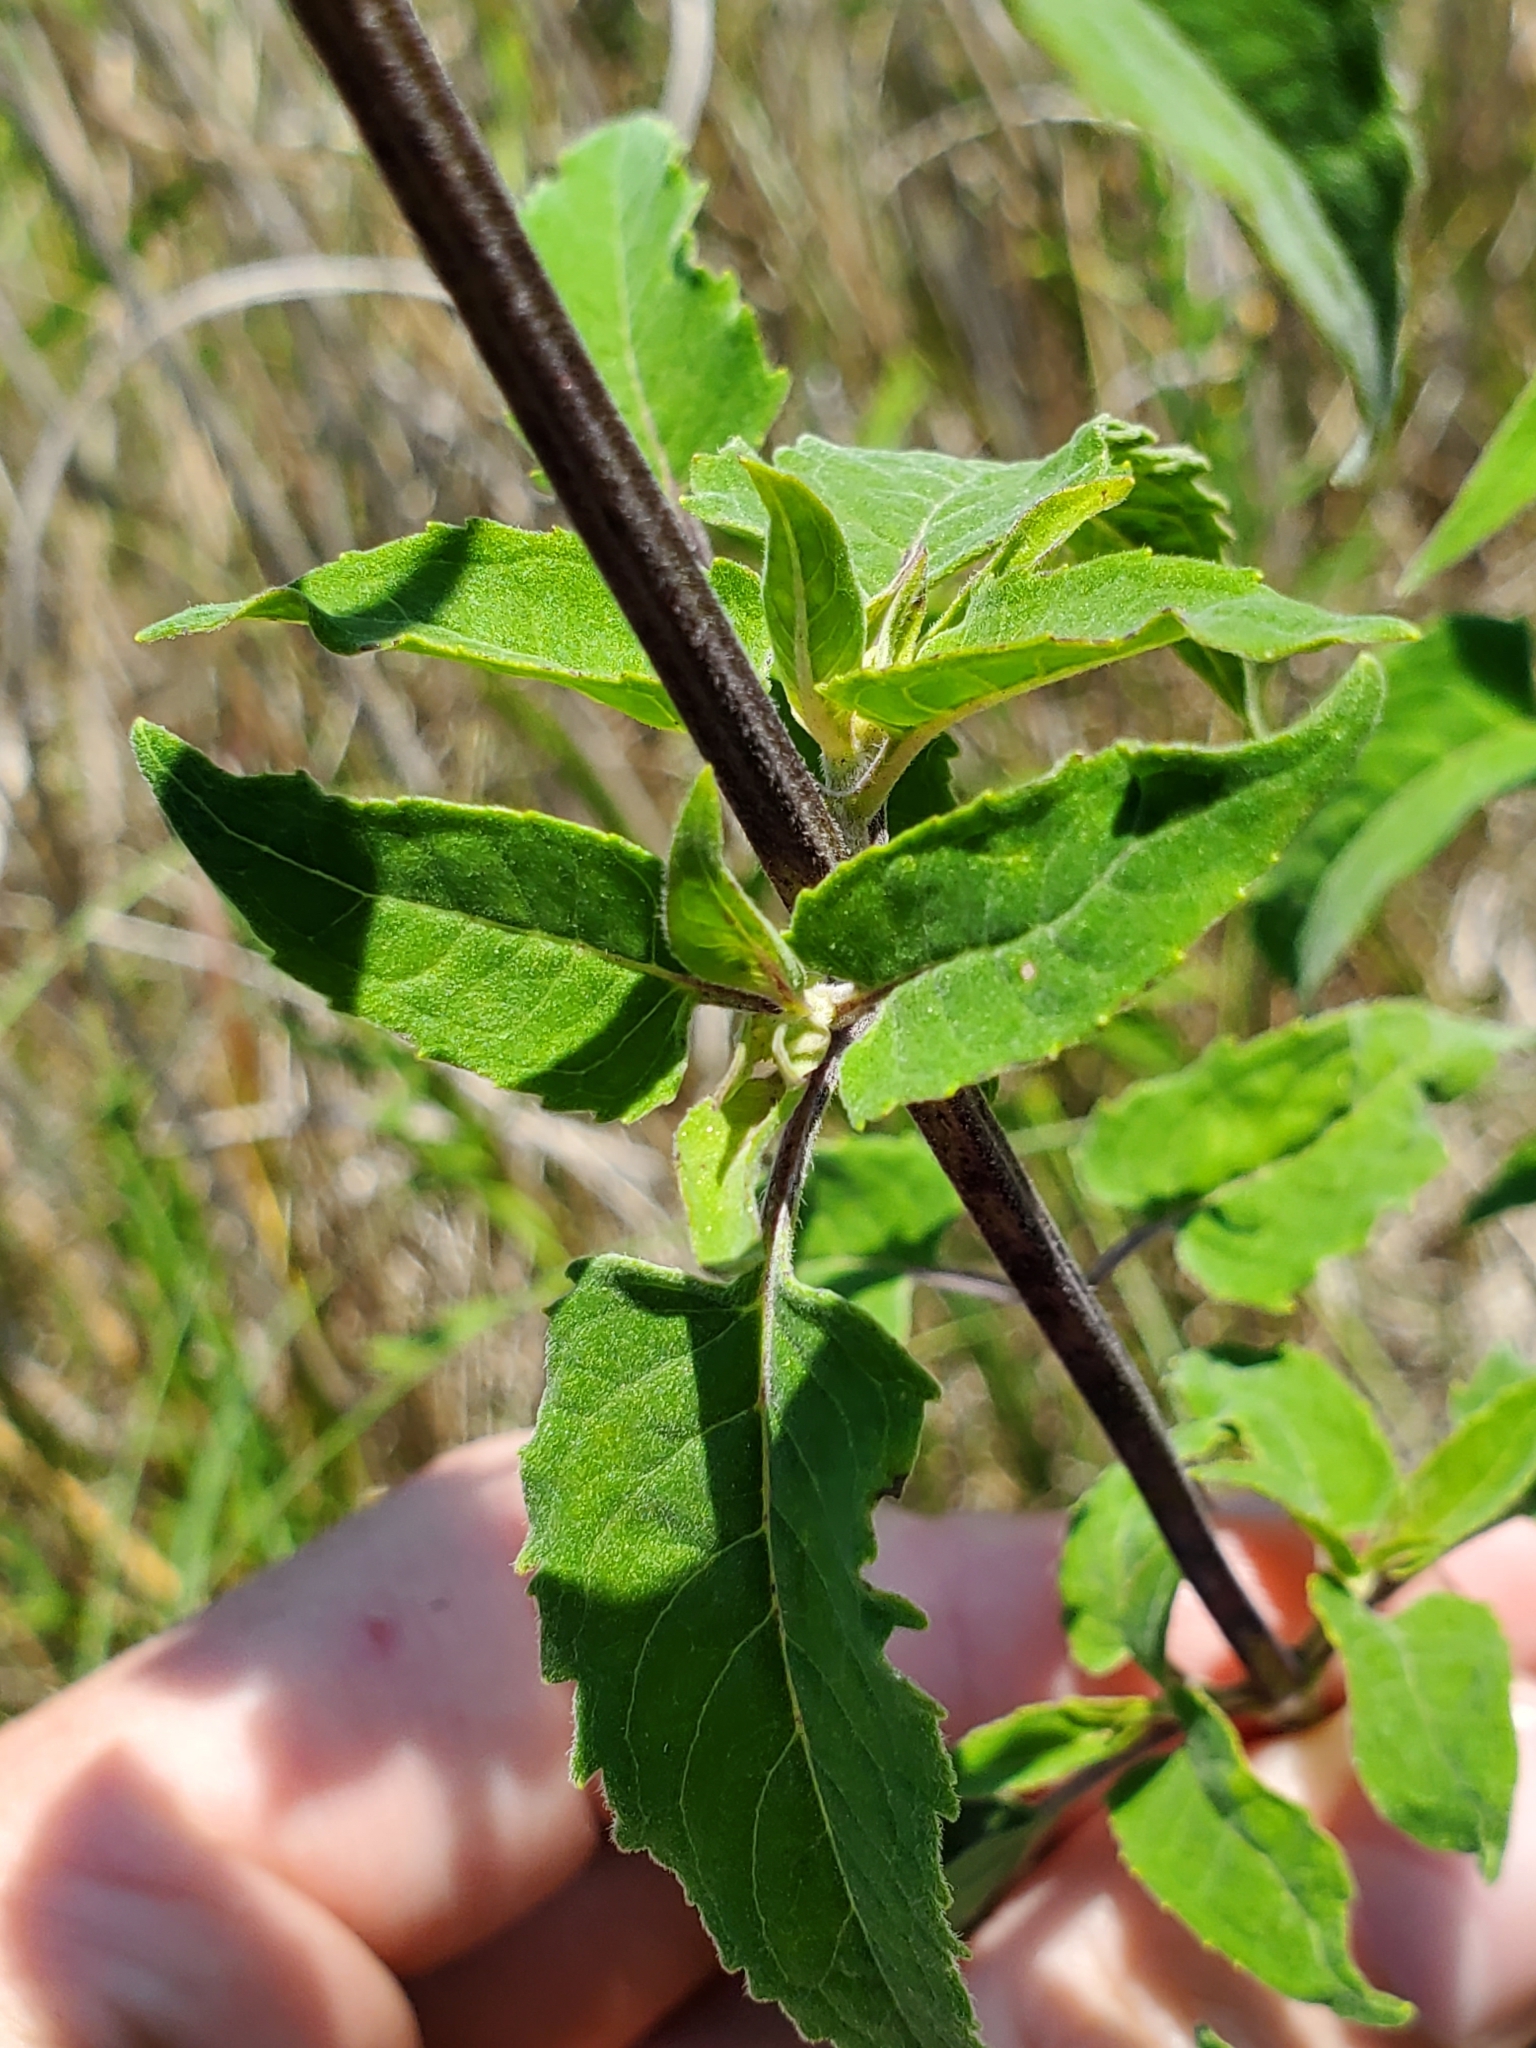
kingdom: Plantae
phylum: Tracheophyta
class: Magnoliopsida
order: Lamiales
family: Lamiaceae
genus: Monarda
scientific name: Monarda fistulosa
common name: Purple beebalm
